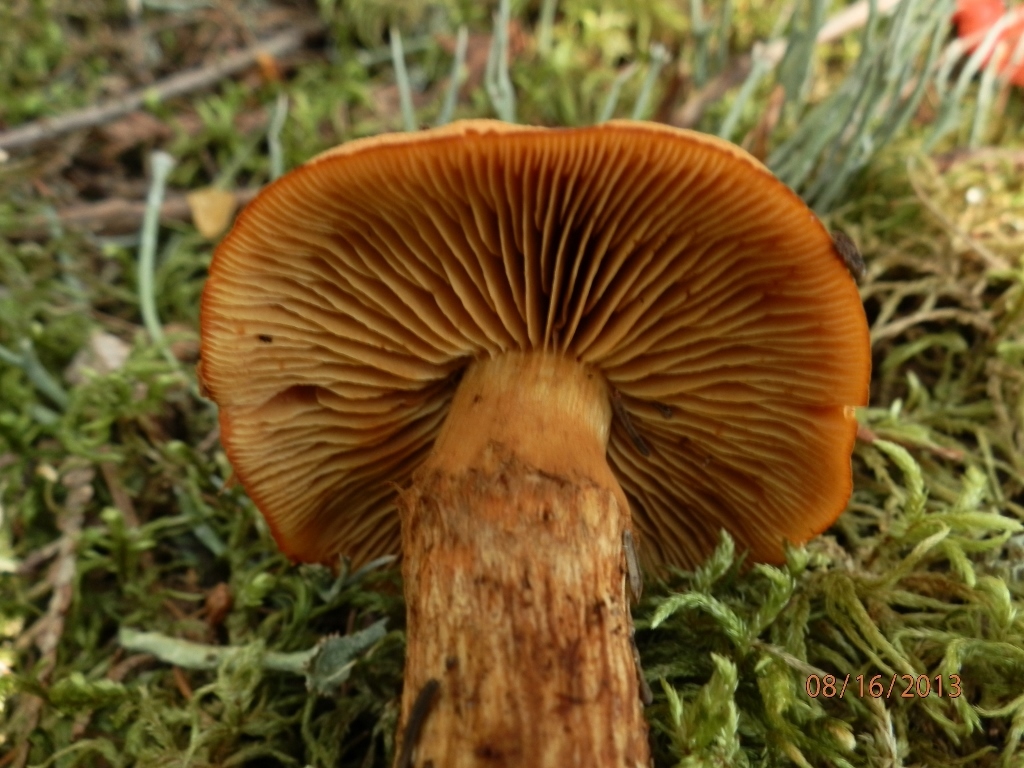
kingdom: Fungi
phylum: Basidiomycota
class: Agaricomycetes
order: Agaricales
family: Cortinariaceae
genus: Aureonarius
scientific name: Aureonarius limonius
